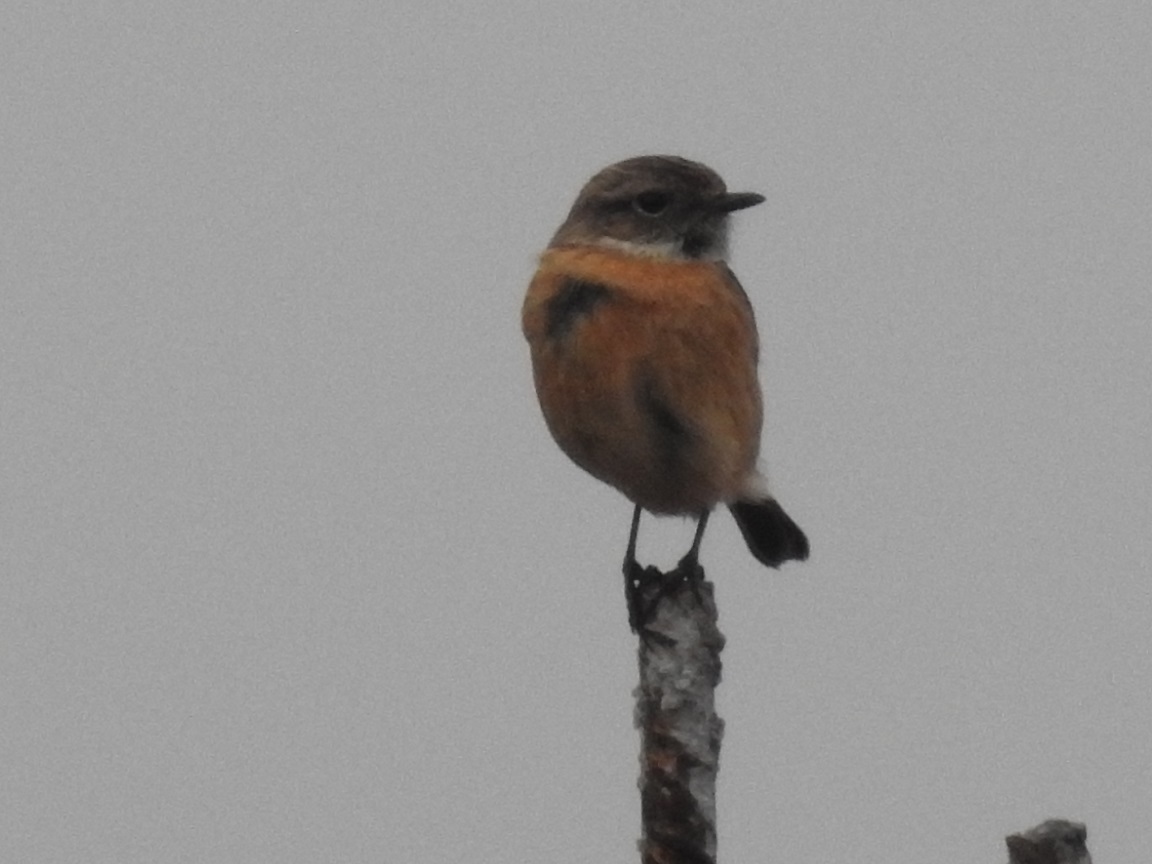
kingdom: Animalia
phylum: Chordata
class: Aves
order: Passeriformes
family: Muscicapidae
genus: Saxicola
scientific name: Saxicola rubicola
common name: European stonechat
